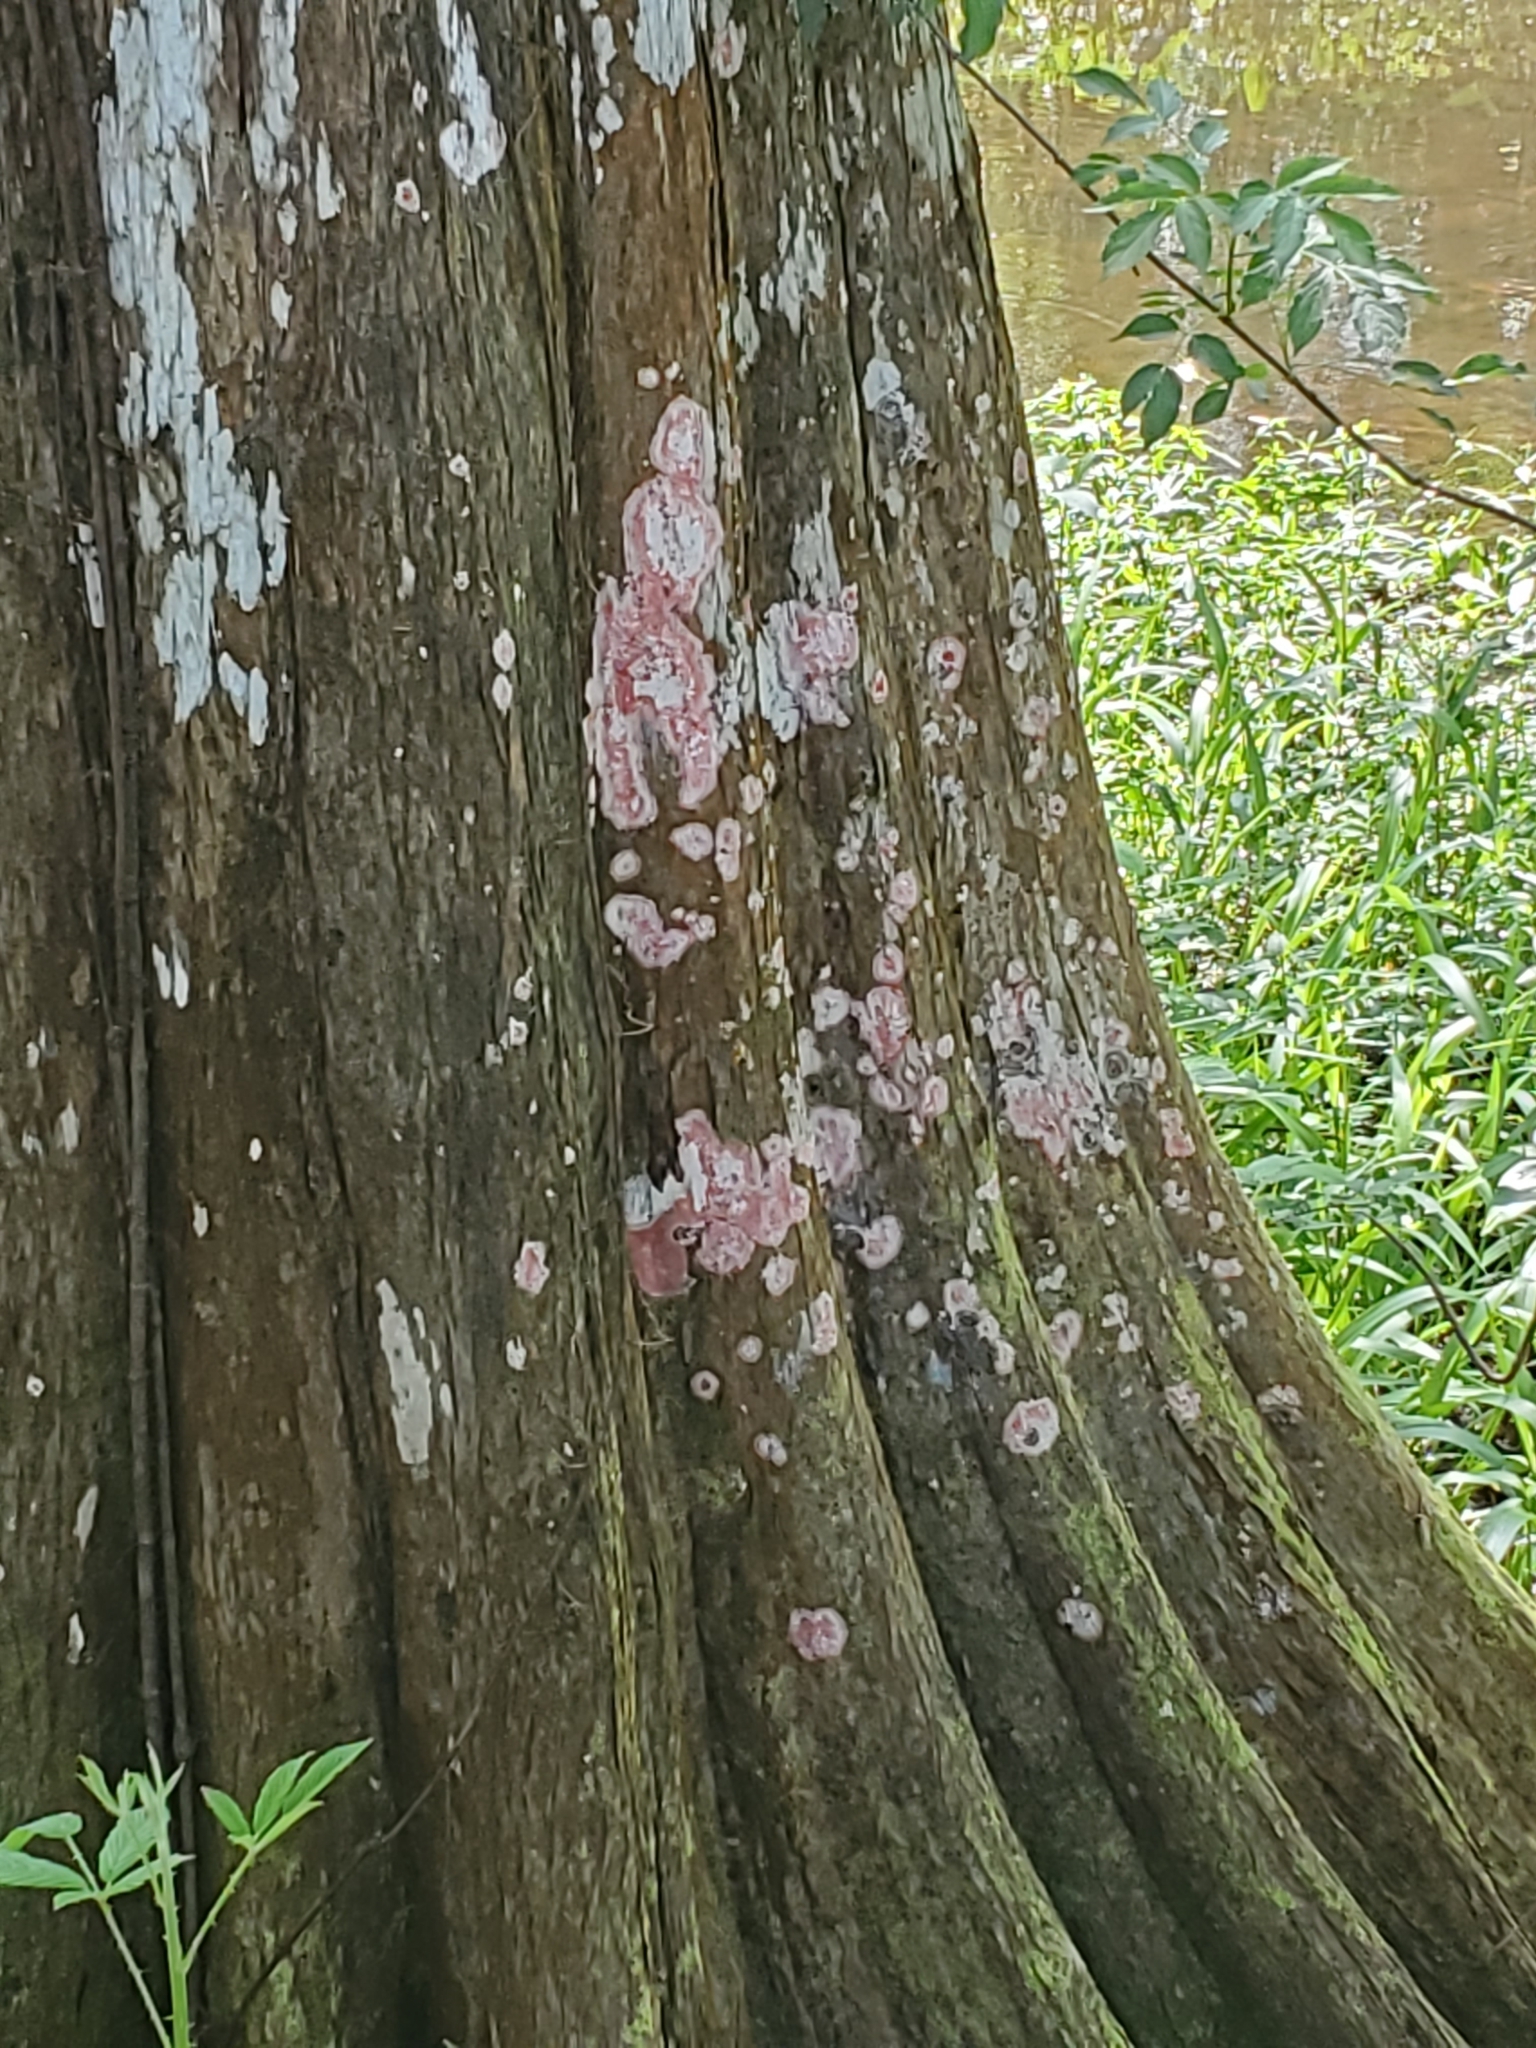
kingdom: Fungi
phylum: Ascomycota
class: Arthoniomycetes
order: Arthoniales
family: Arthoniaceae
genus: Herpothallon
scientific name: Herpothallon rubrocinctum
